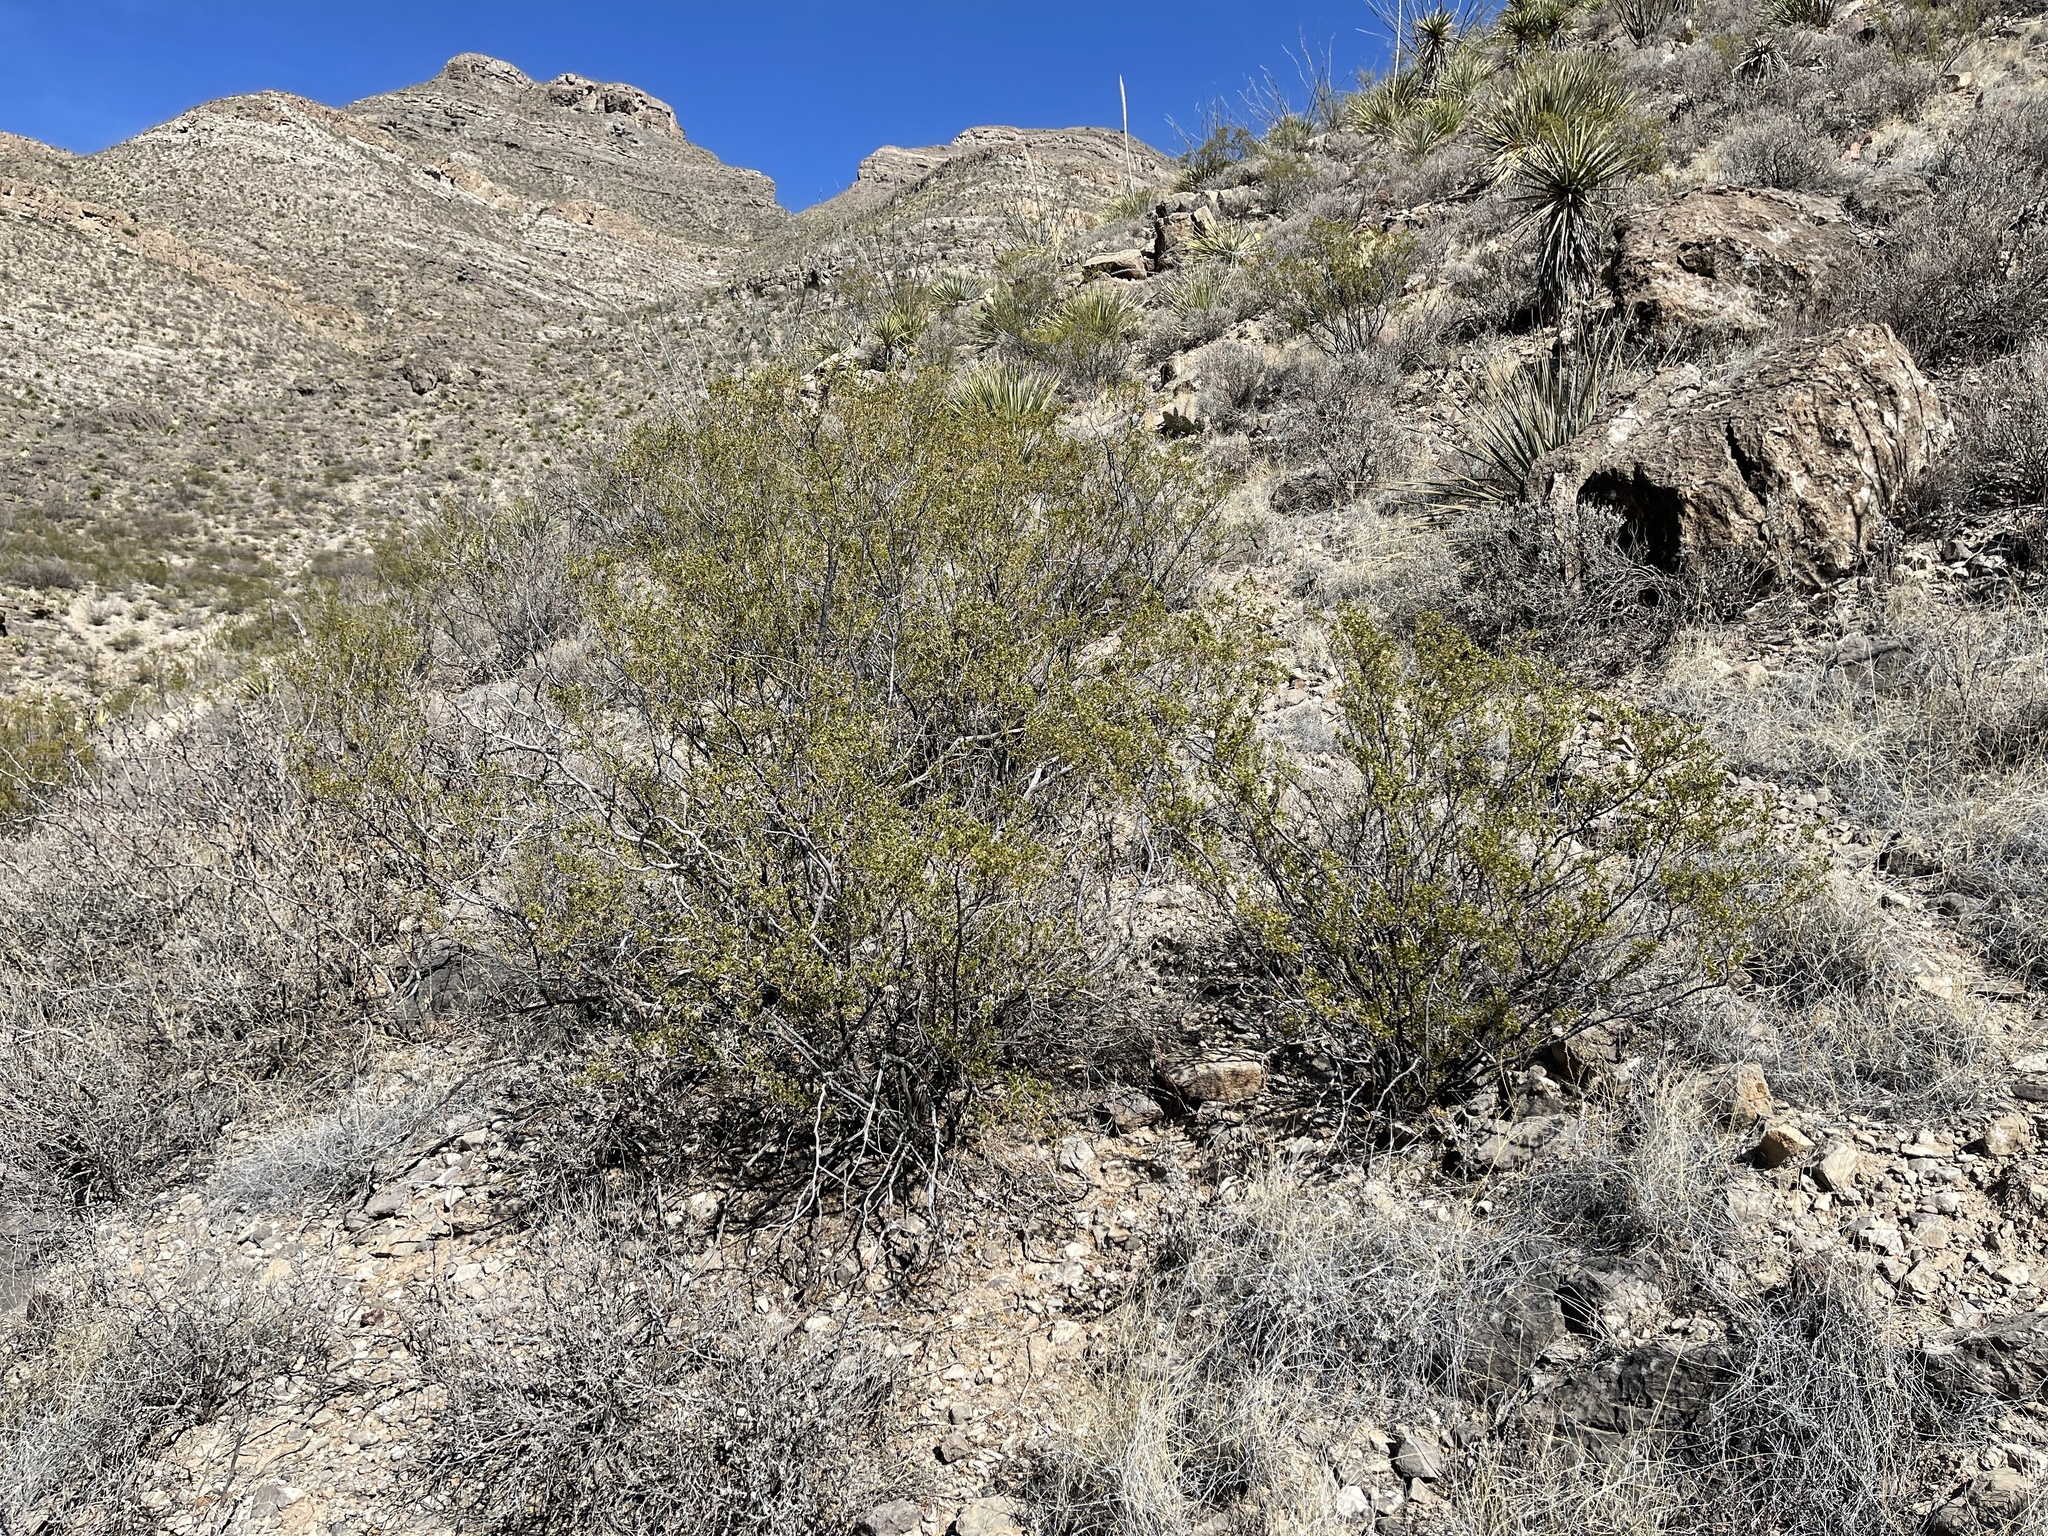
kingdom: Plantae
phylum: Tracheophyta
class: Magnoliopsida
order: Zygophyllales
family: Zygophyllaceae
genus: Larrea
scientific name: Larrea tridentata
